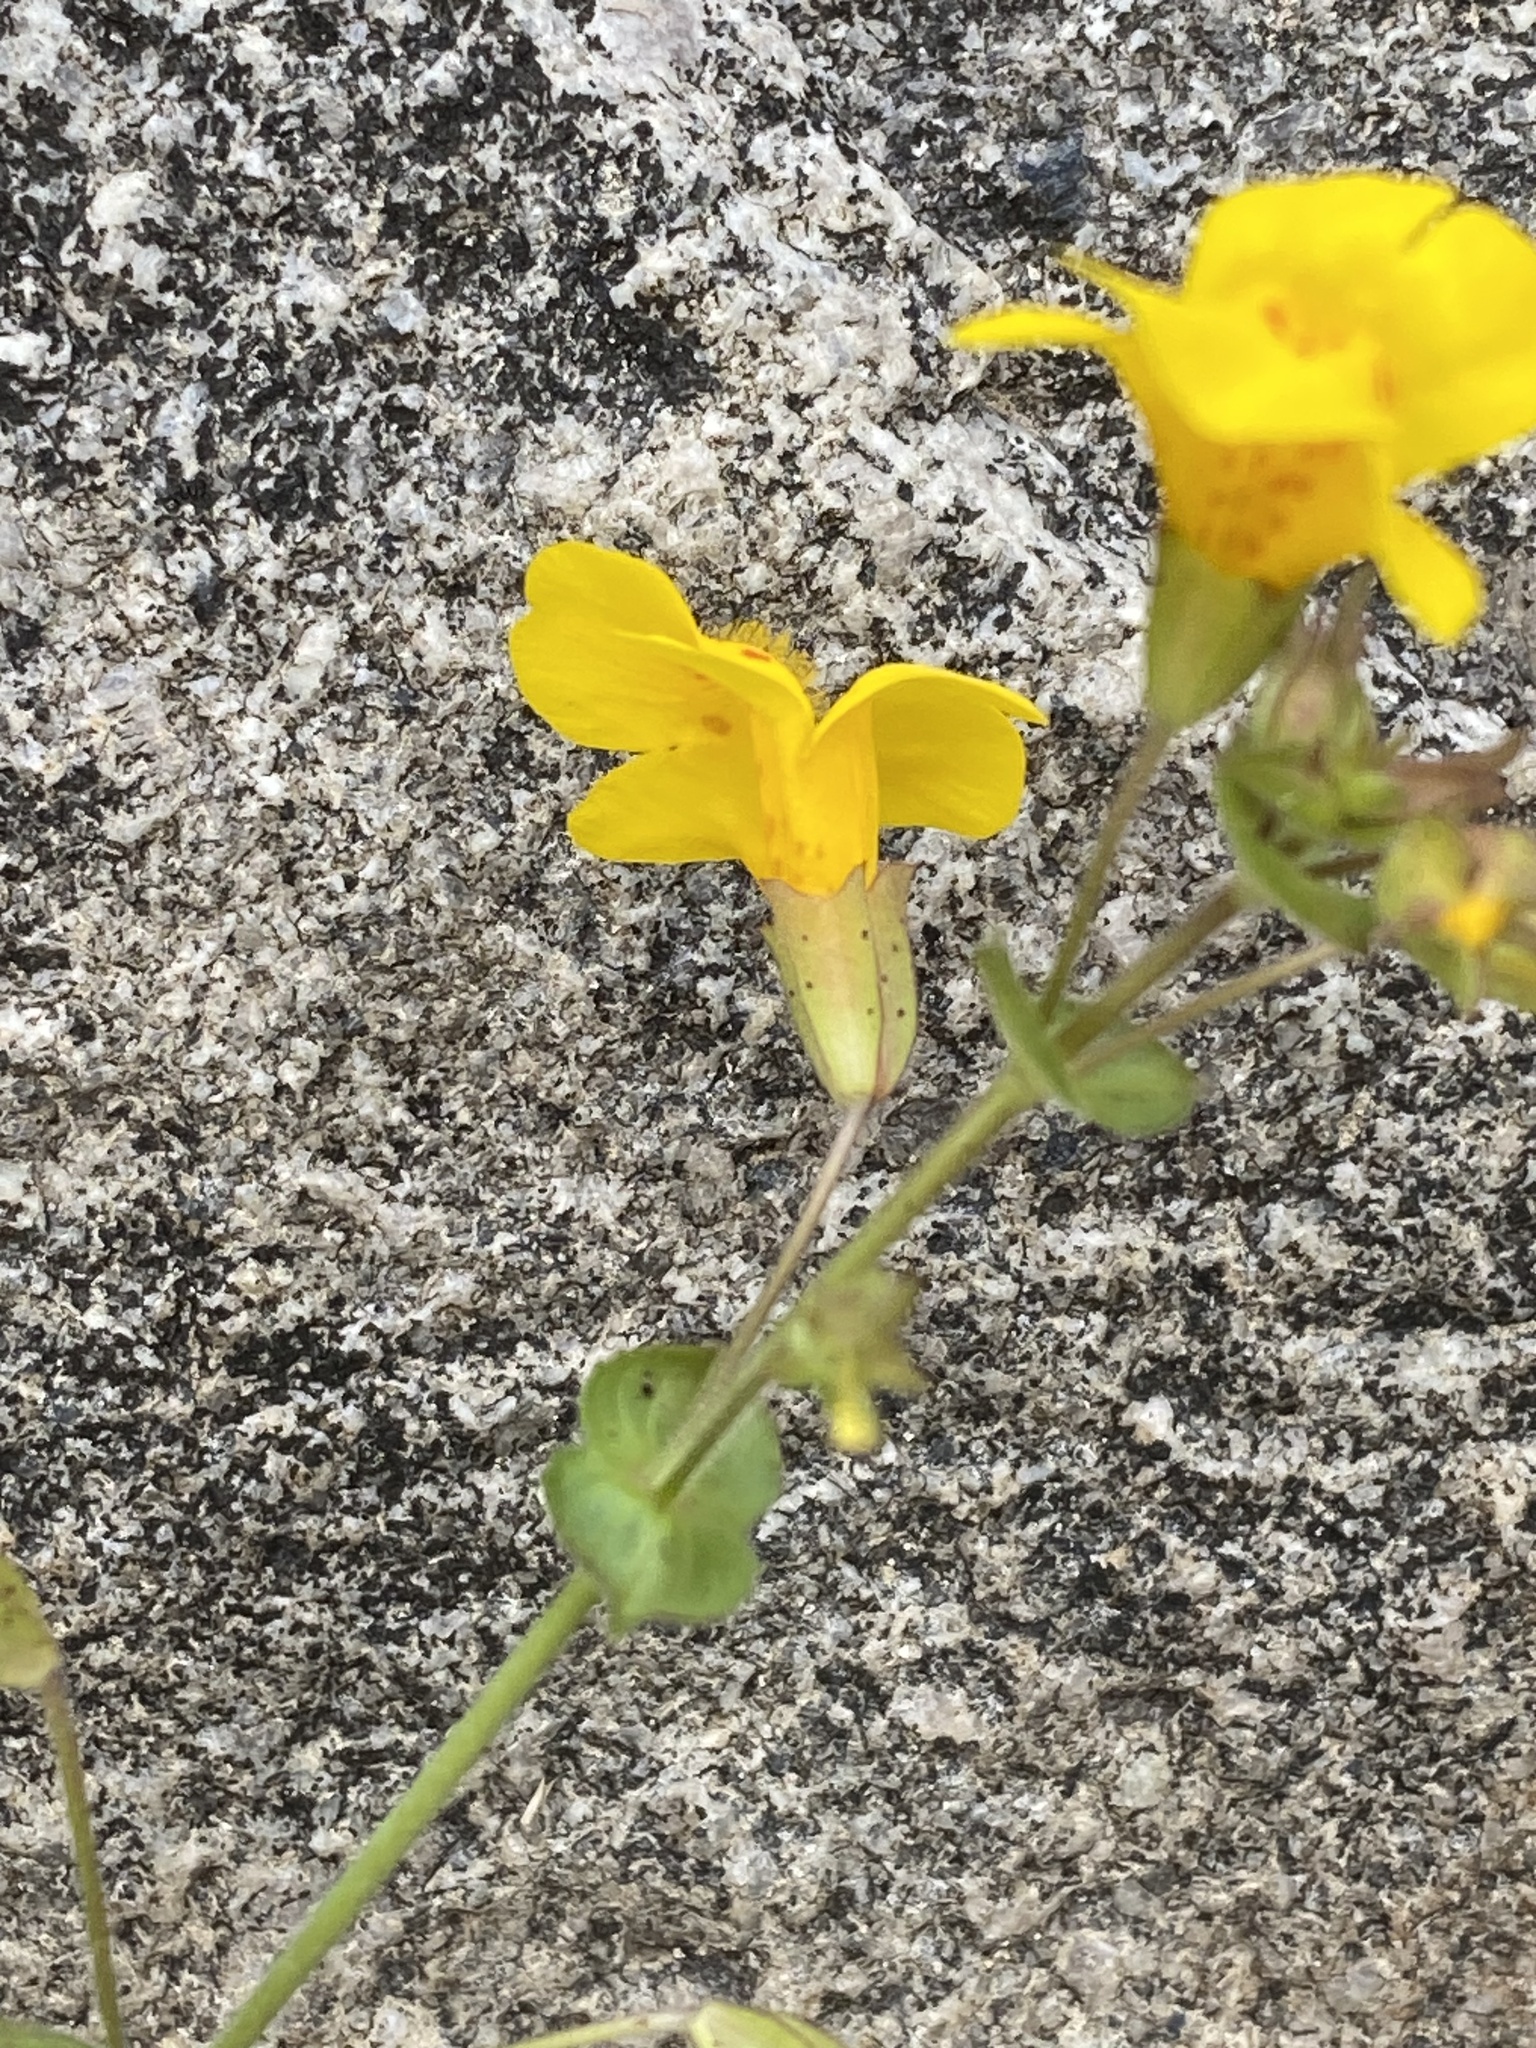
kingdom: Plantae
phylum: Tracheophyta
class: Magnoliopsida
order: Lamiales
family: Phrymaceae
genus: Erythranthe
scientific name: Erythranthe guttata
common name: Monkeyflower
